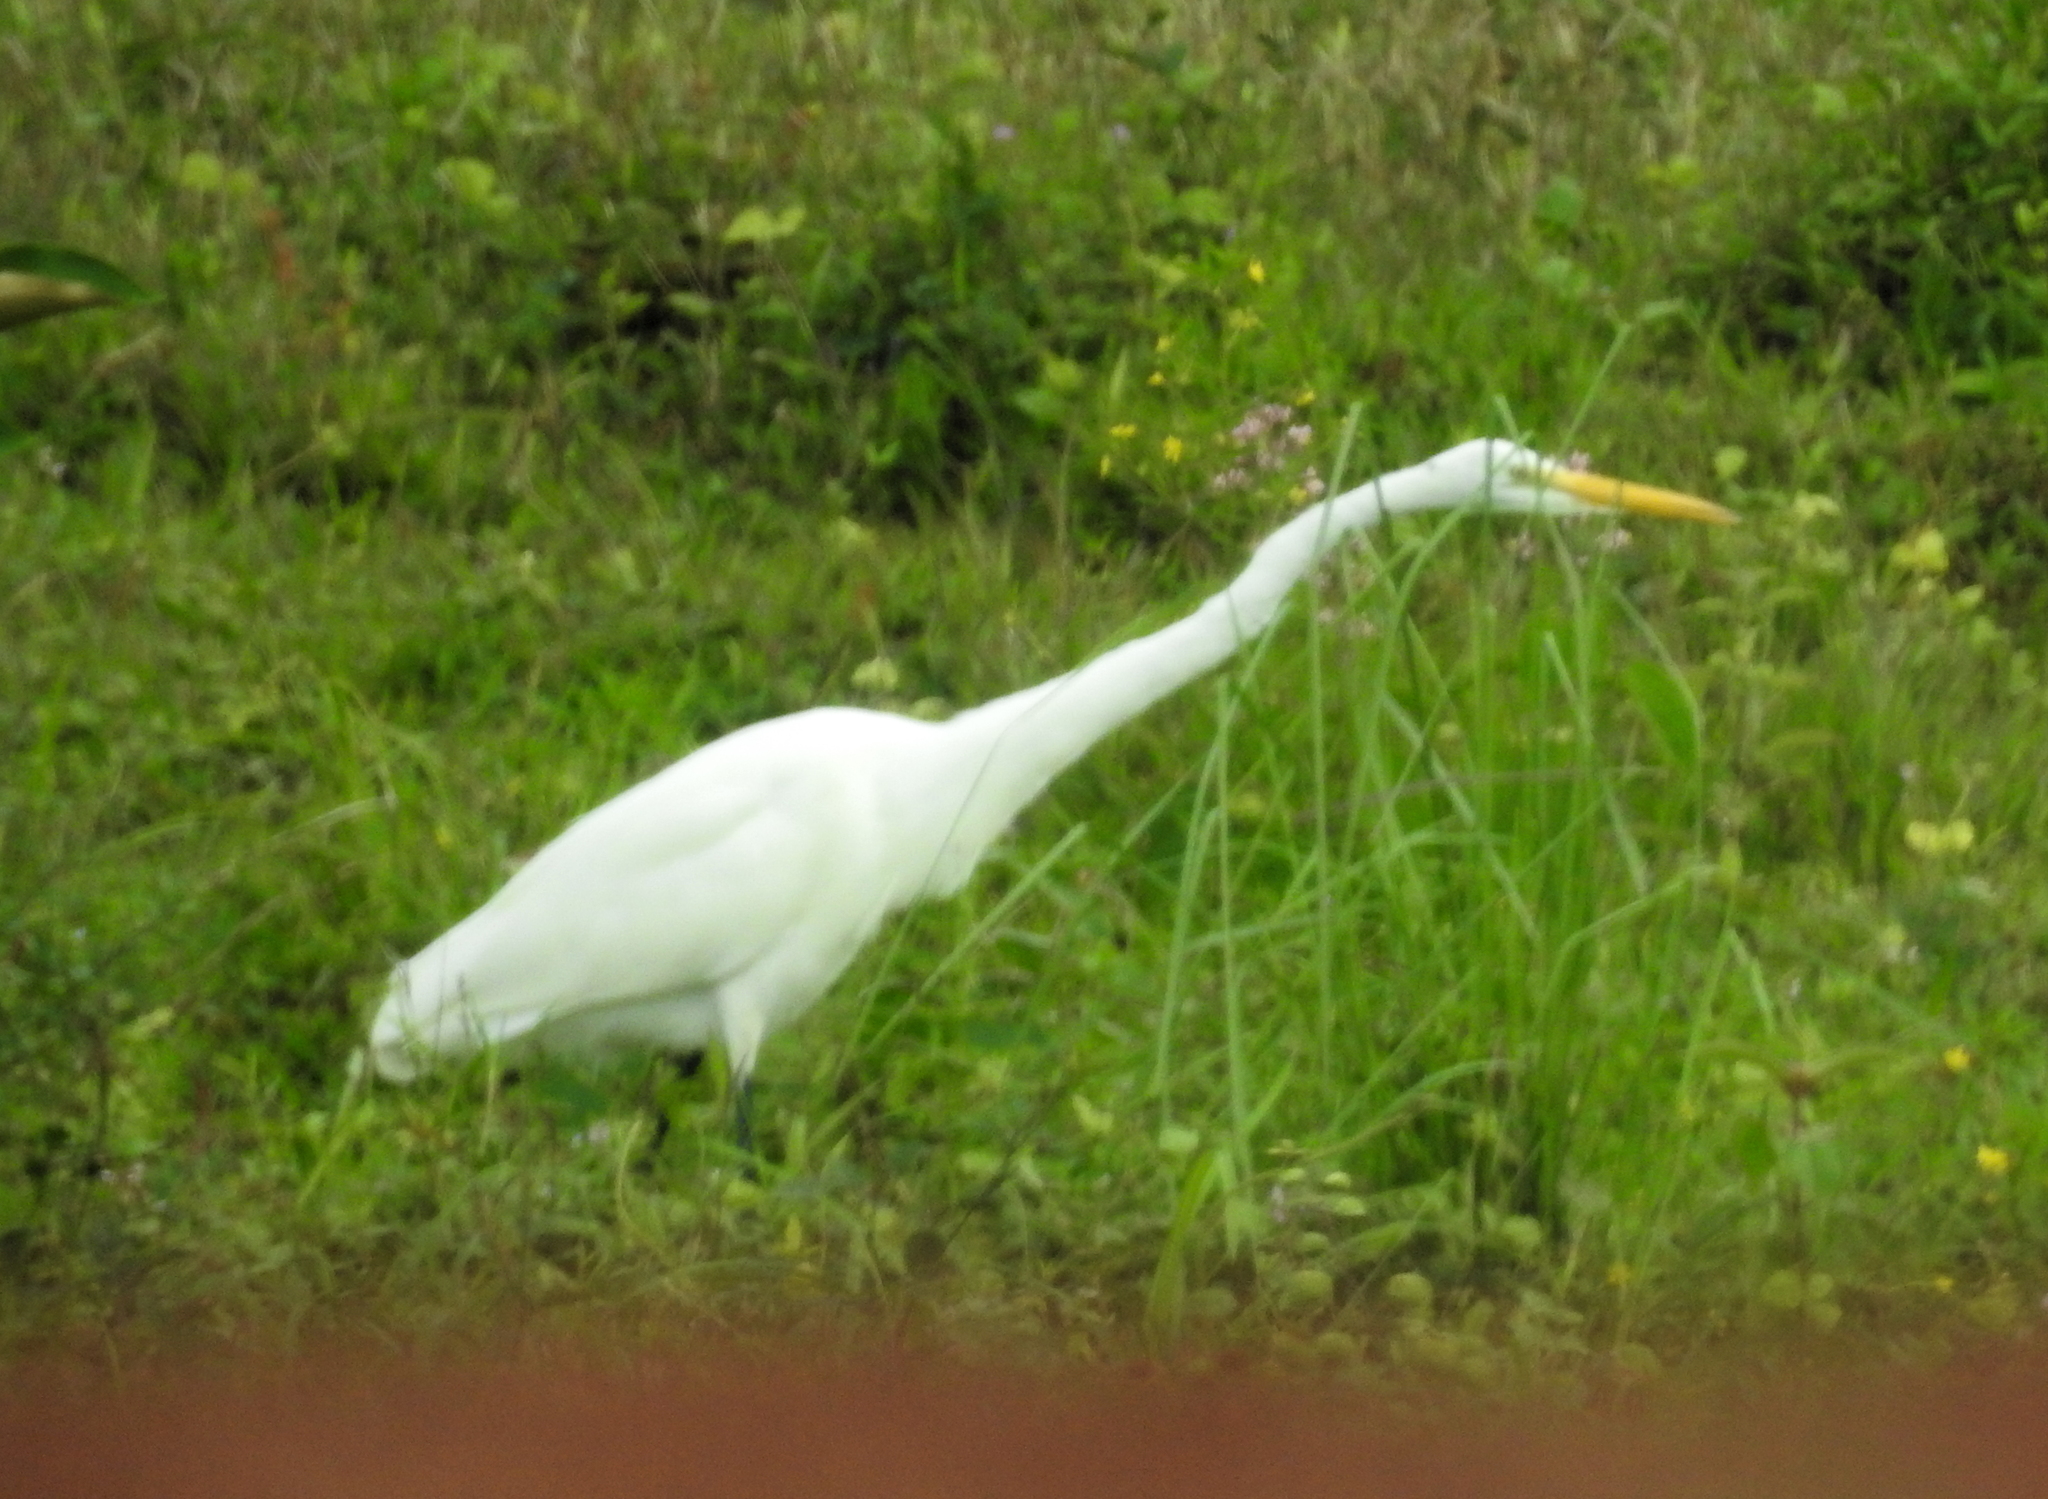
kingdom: Animalia
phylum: Chordata
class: Aves
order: Pelecaniformes
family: Ardeidae
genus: Ardea
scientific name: Ardea alba
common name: Great egret
